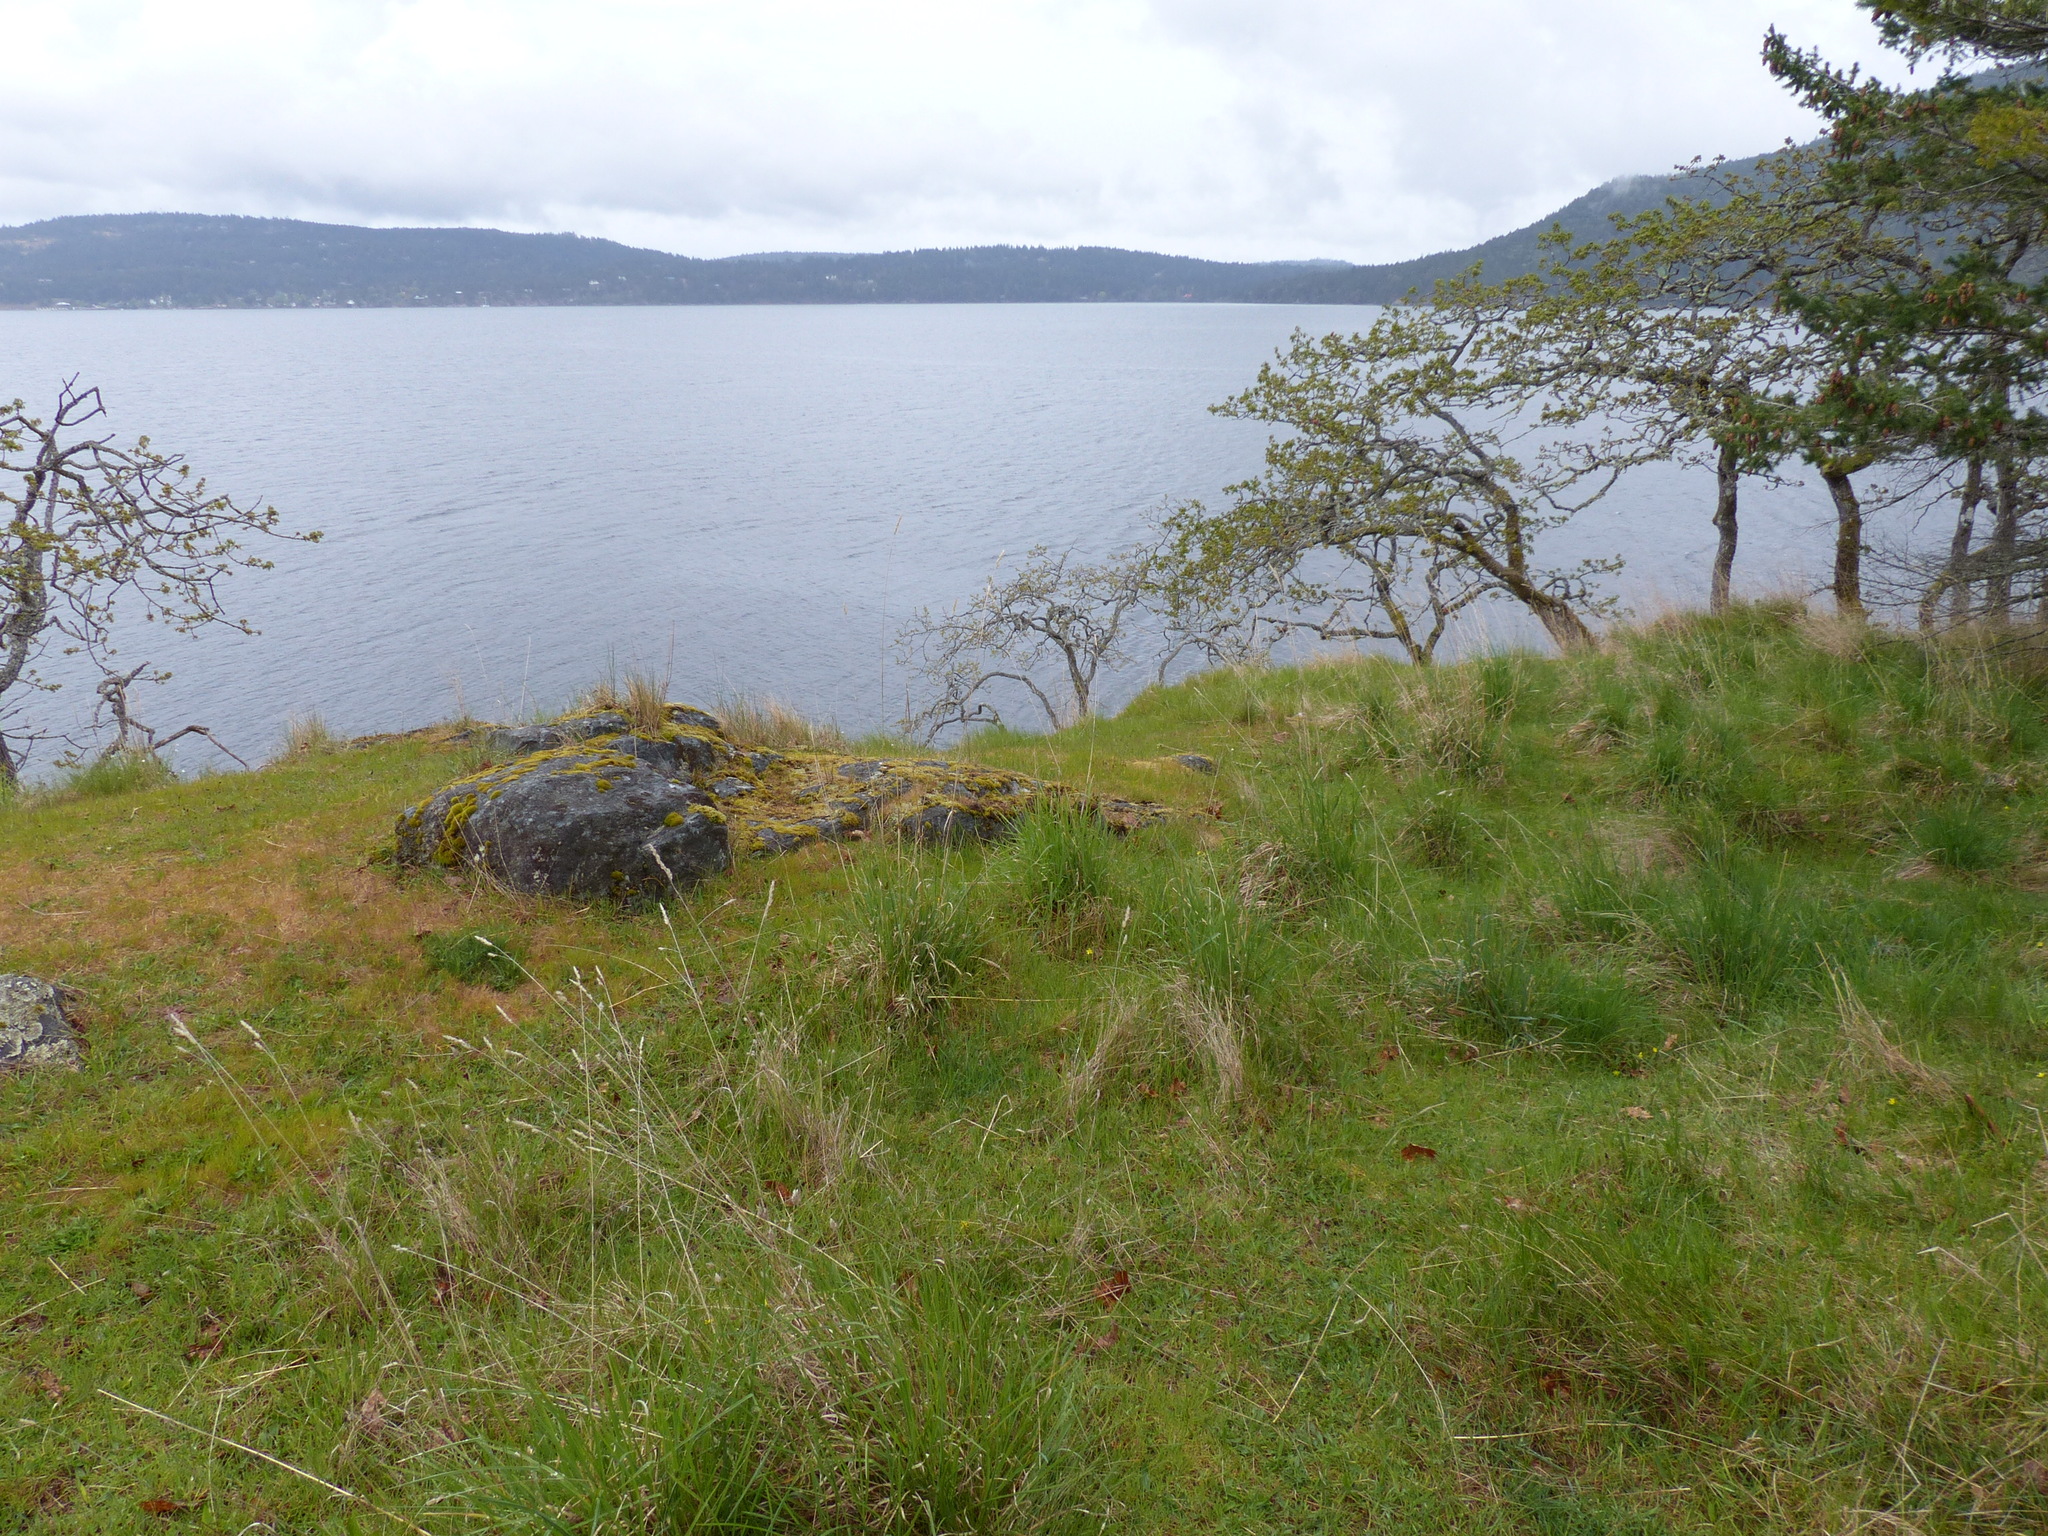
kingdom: Plantae
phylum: Tracheophyta
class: Magnoliopsida
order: Fagales
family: Fagaceae
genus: Quercus
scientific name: Quercus garryana
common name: Garry oak
